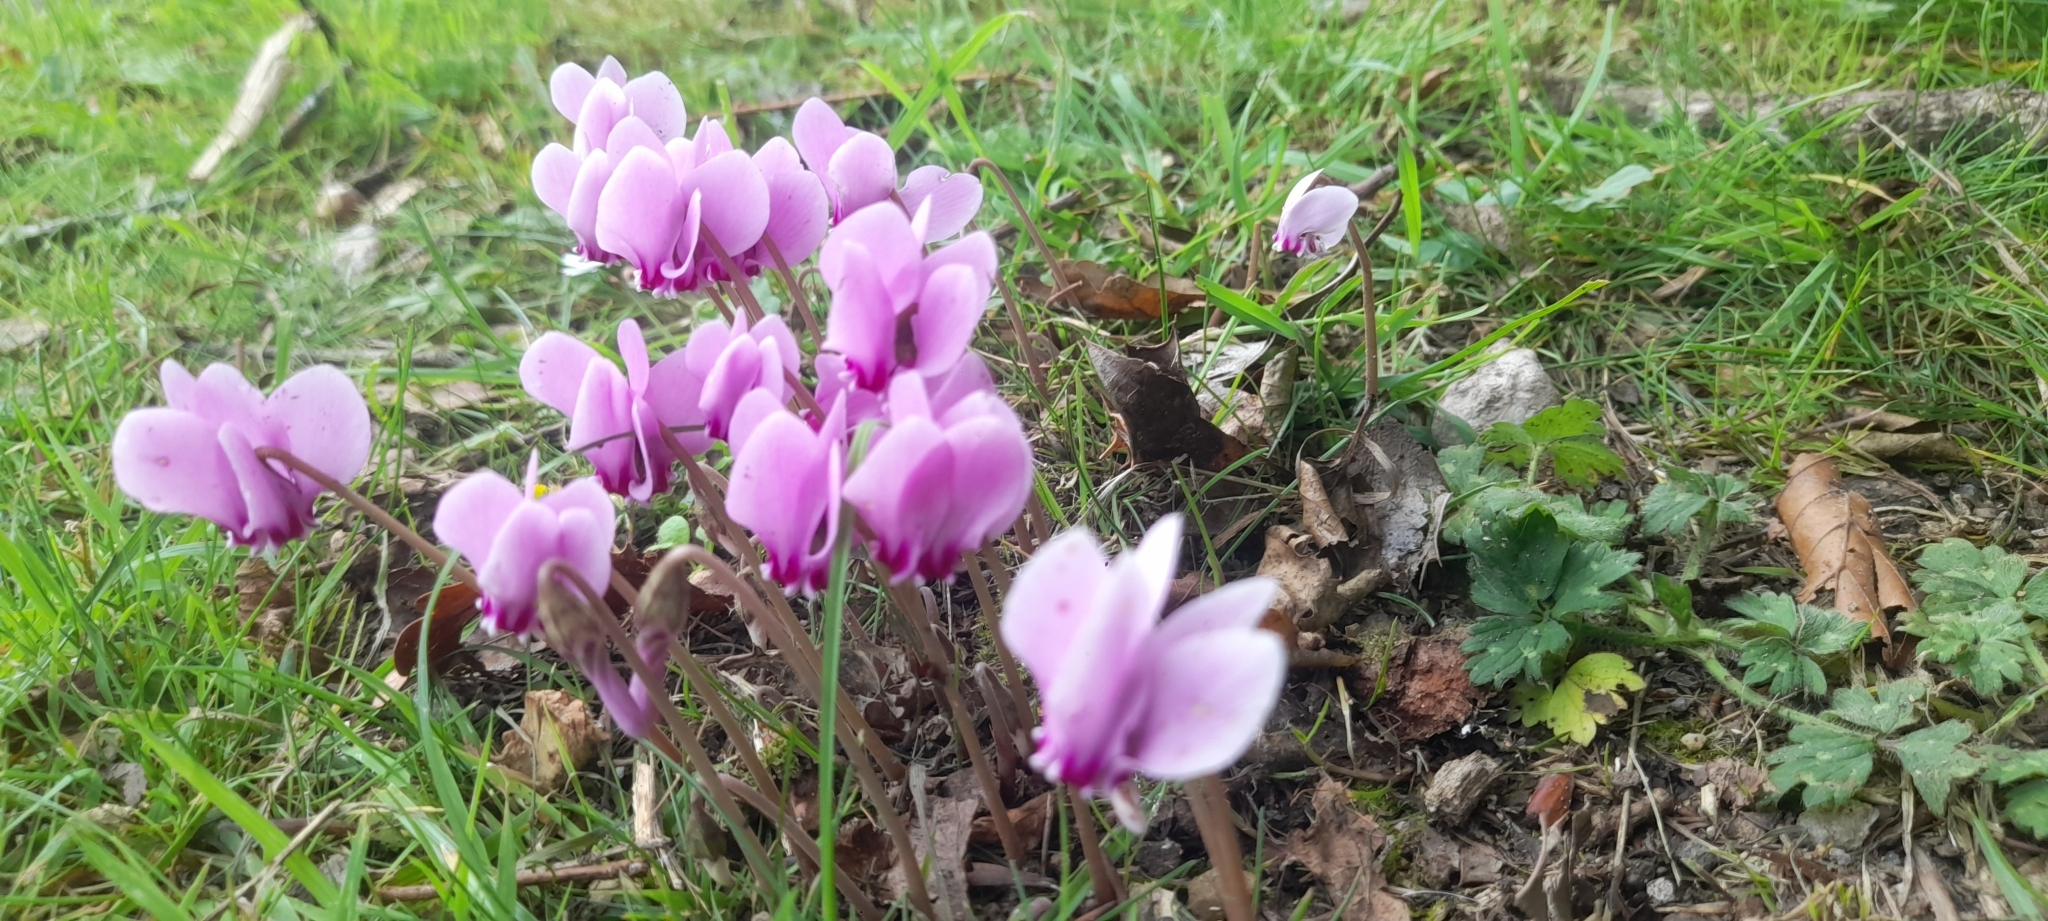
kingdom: Plantae
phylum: Tracheophyta
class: Magnoliopsida
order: Ericales
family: Primulaceae
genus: Cyclamen
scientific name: Cyclamen hederifolium
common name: Sowbread
